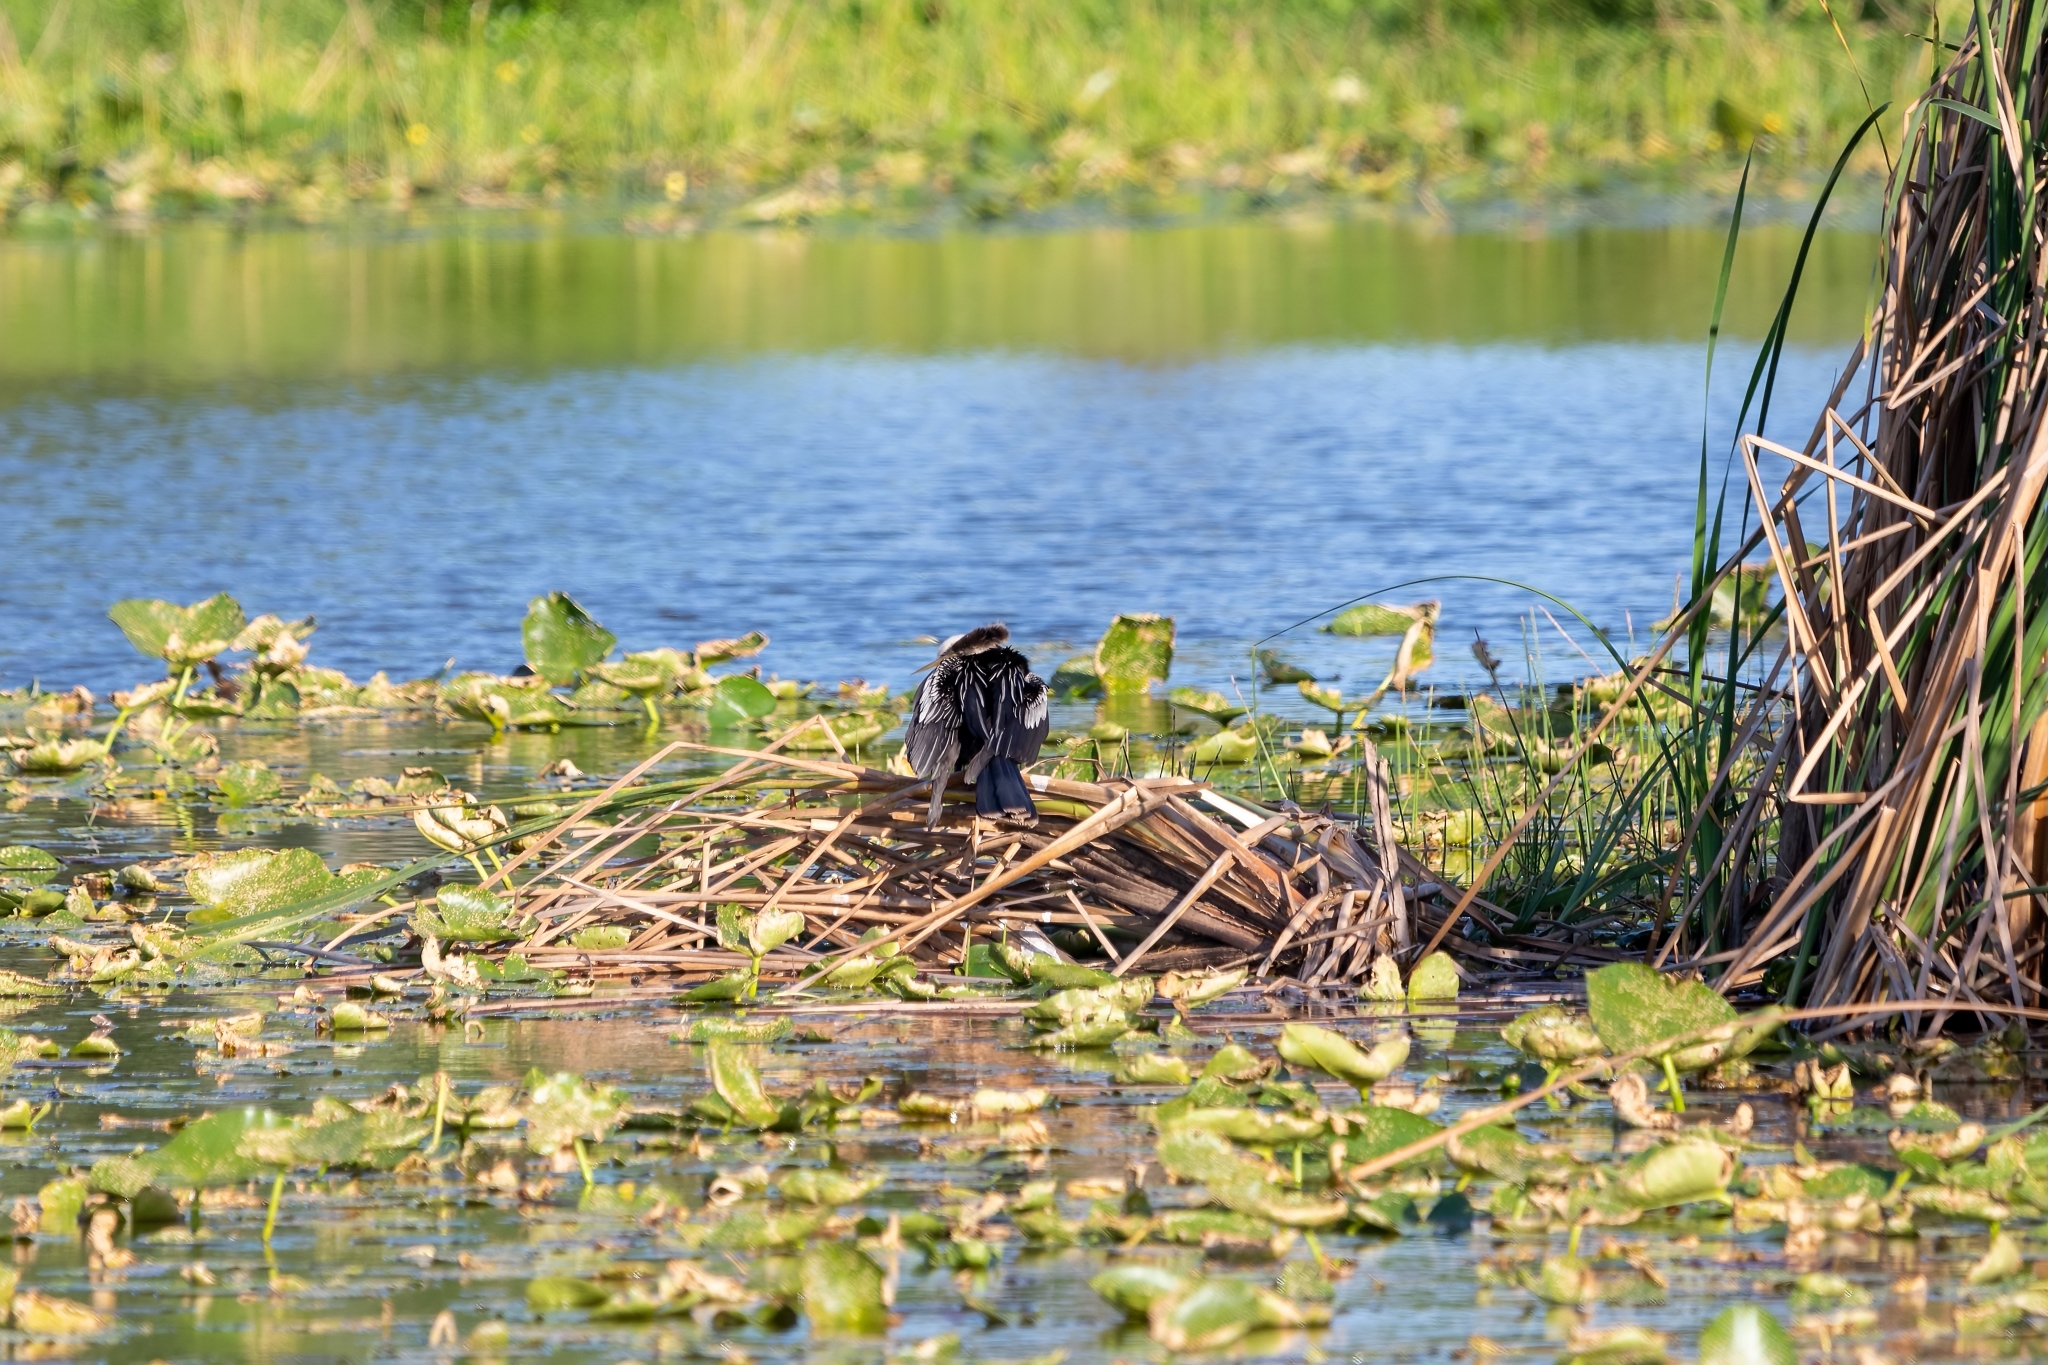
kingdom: Animalia
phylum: Chordata
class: Aves
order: Suliformes
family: Anhingidae
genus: Anhinga
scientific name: Anhinga anhinga
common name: Anhinga
